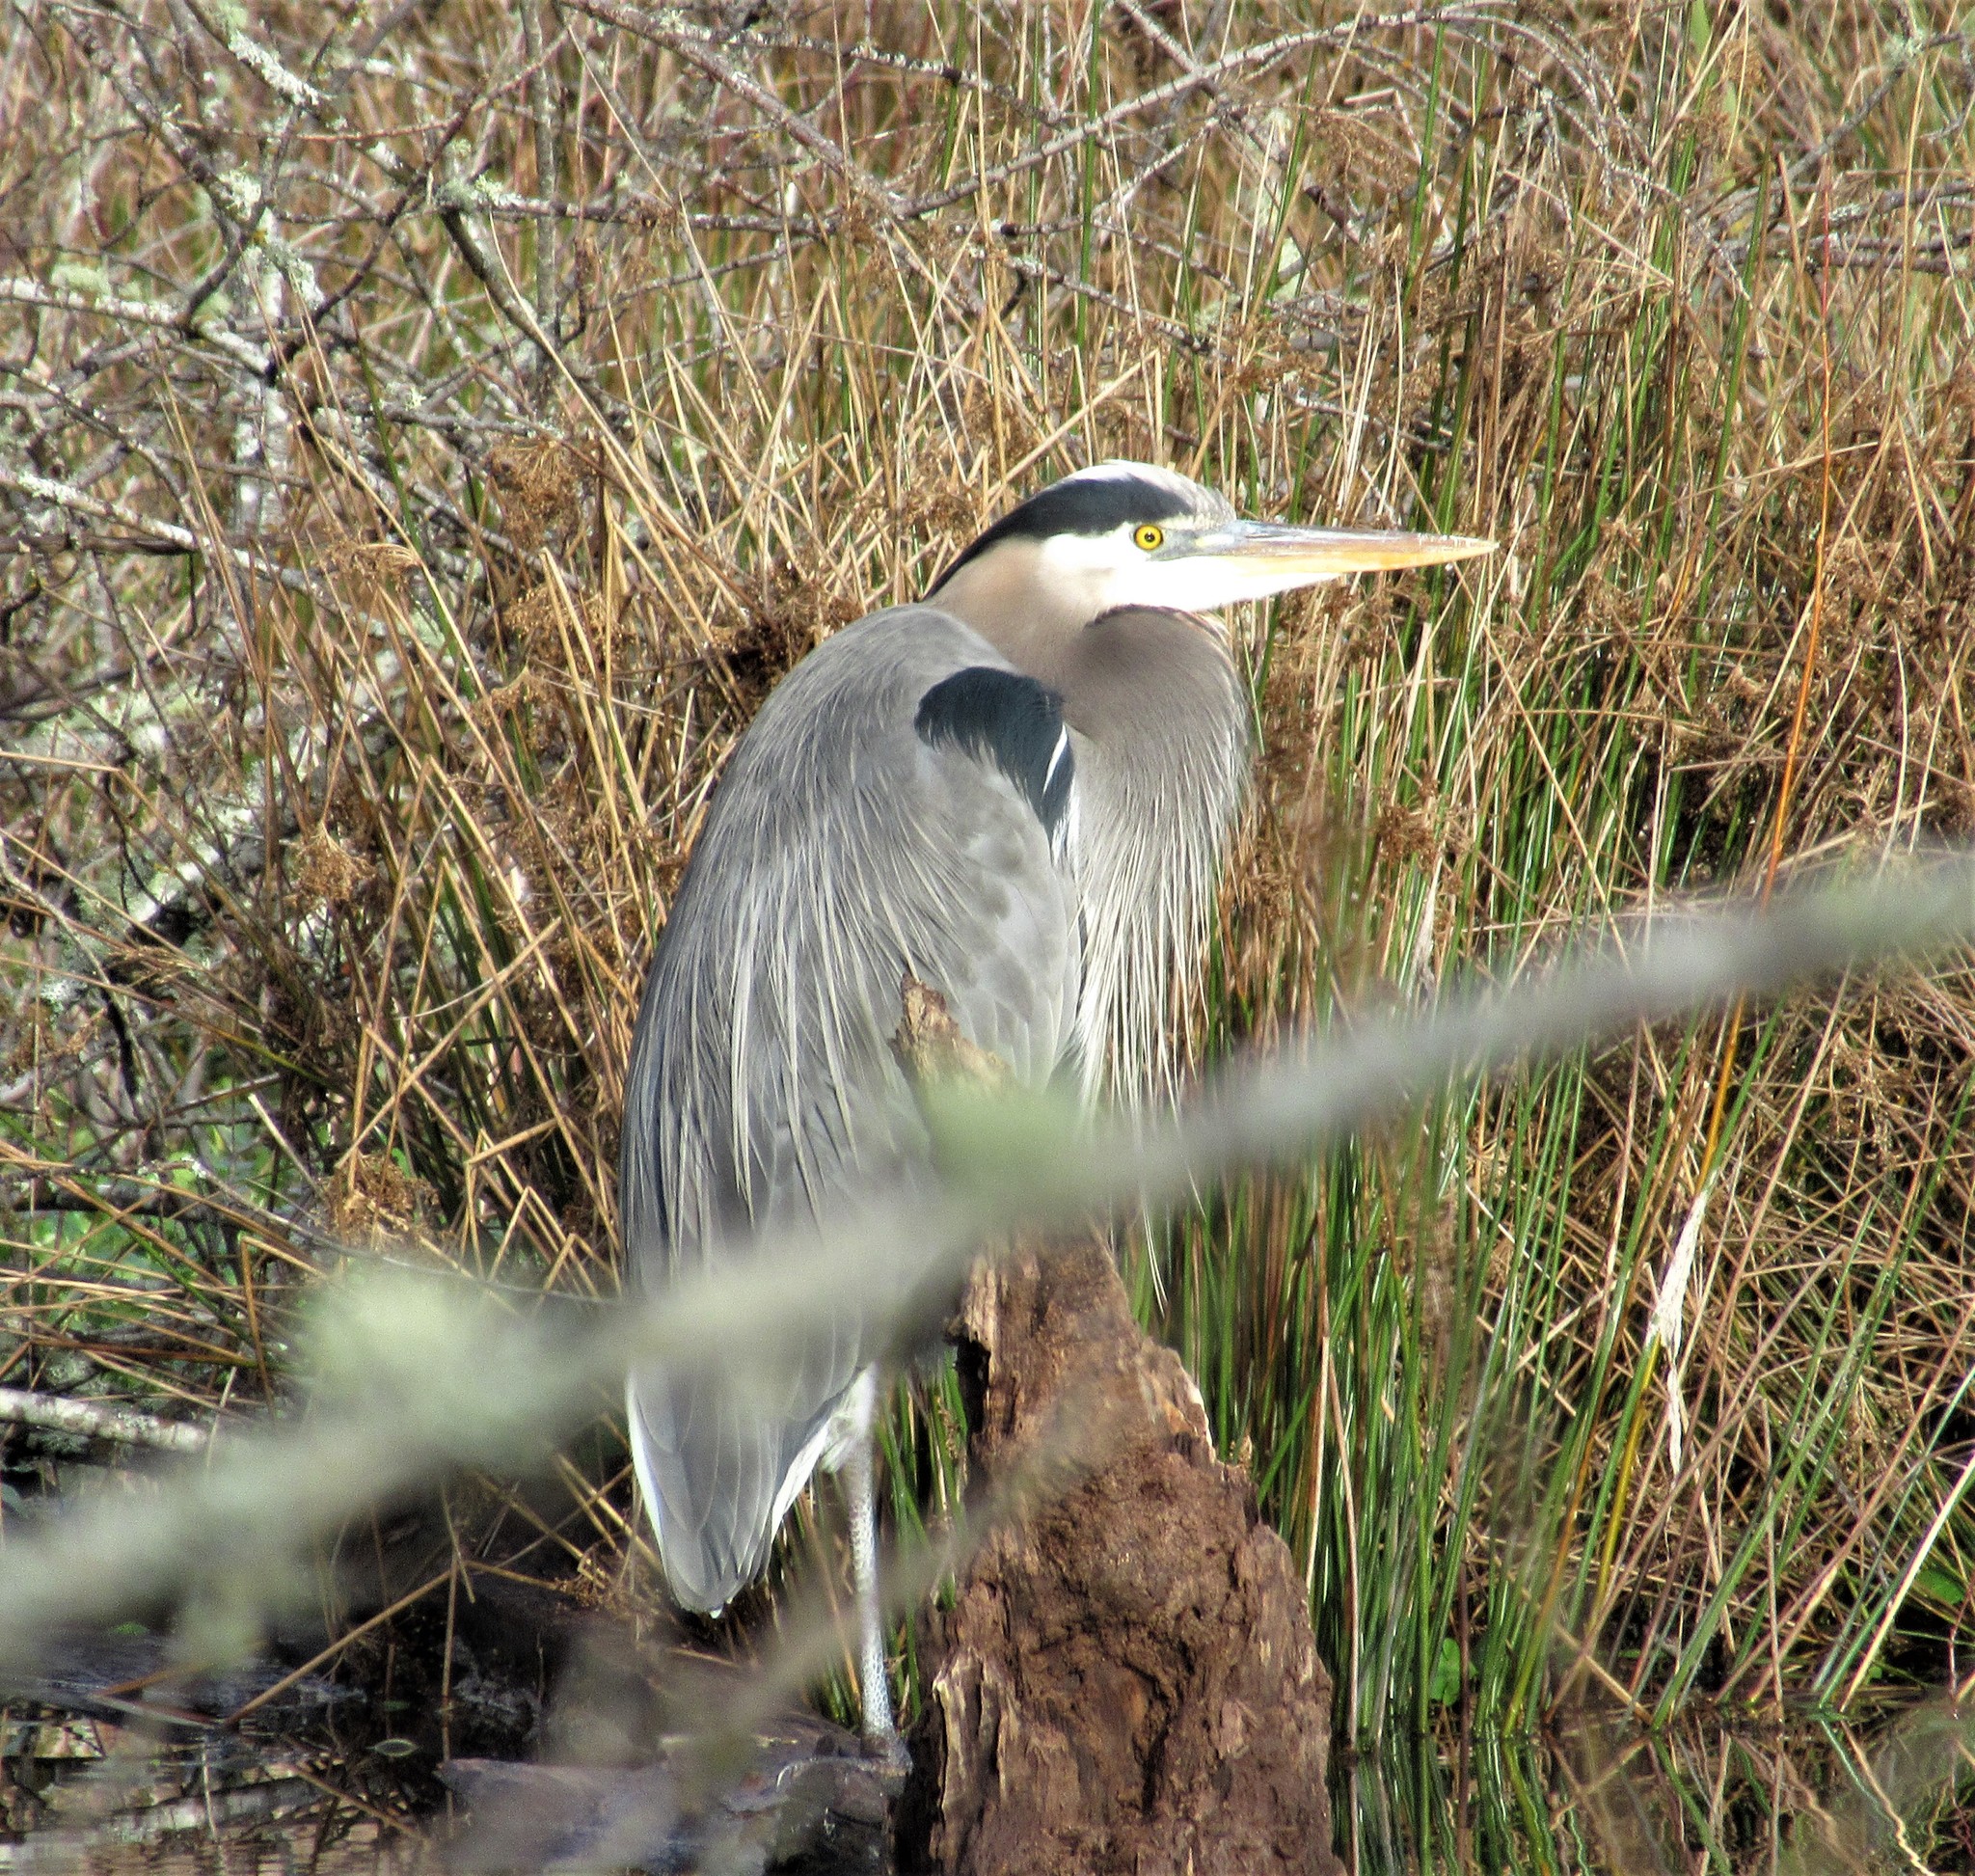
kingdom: Animalia
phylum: Chordata
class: Aves
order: Pelecaniformes
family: Ardeidae
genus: Ardea
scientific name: Ardea herodias
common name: Great blue heron
